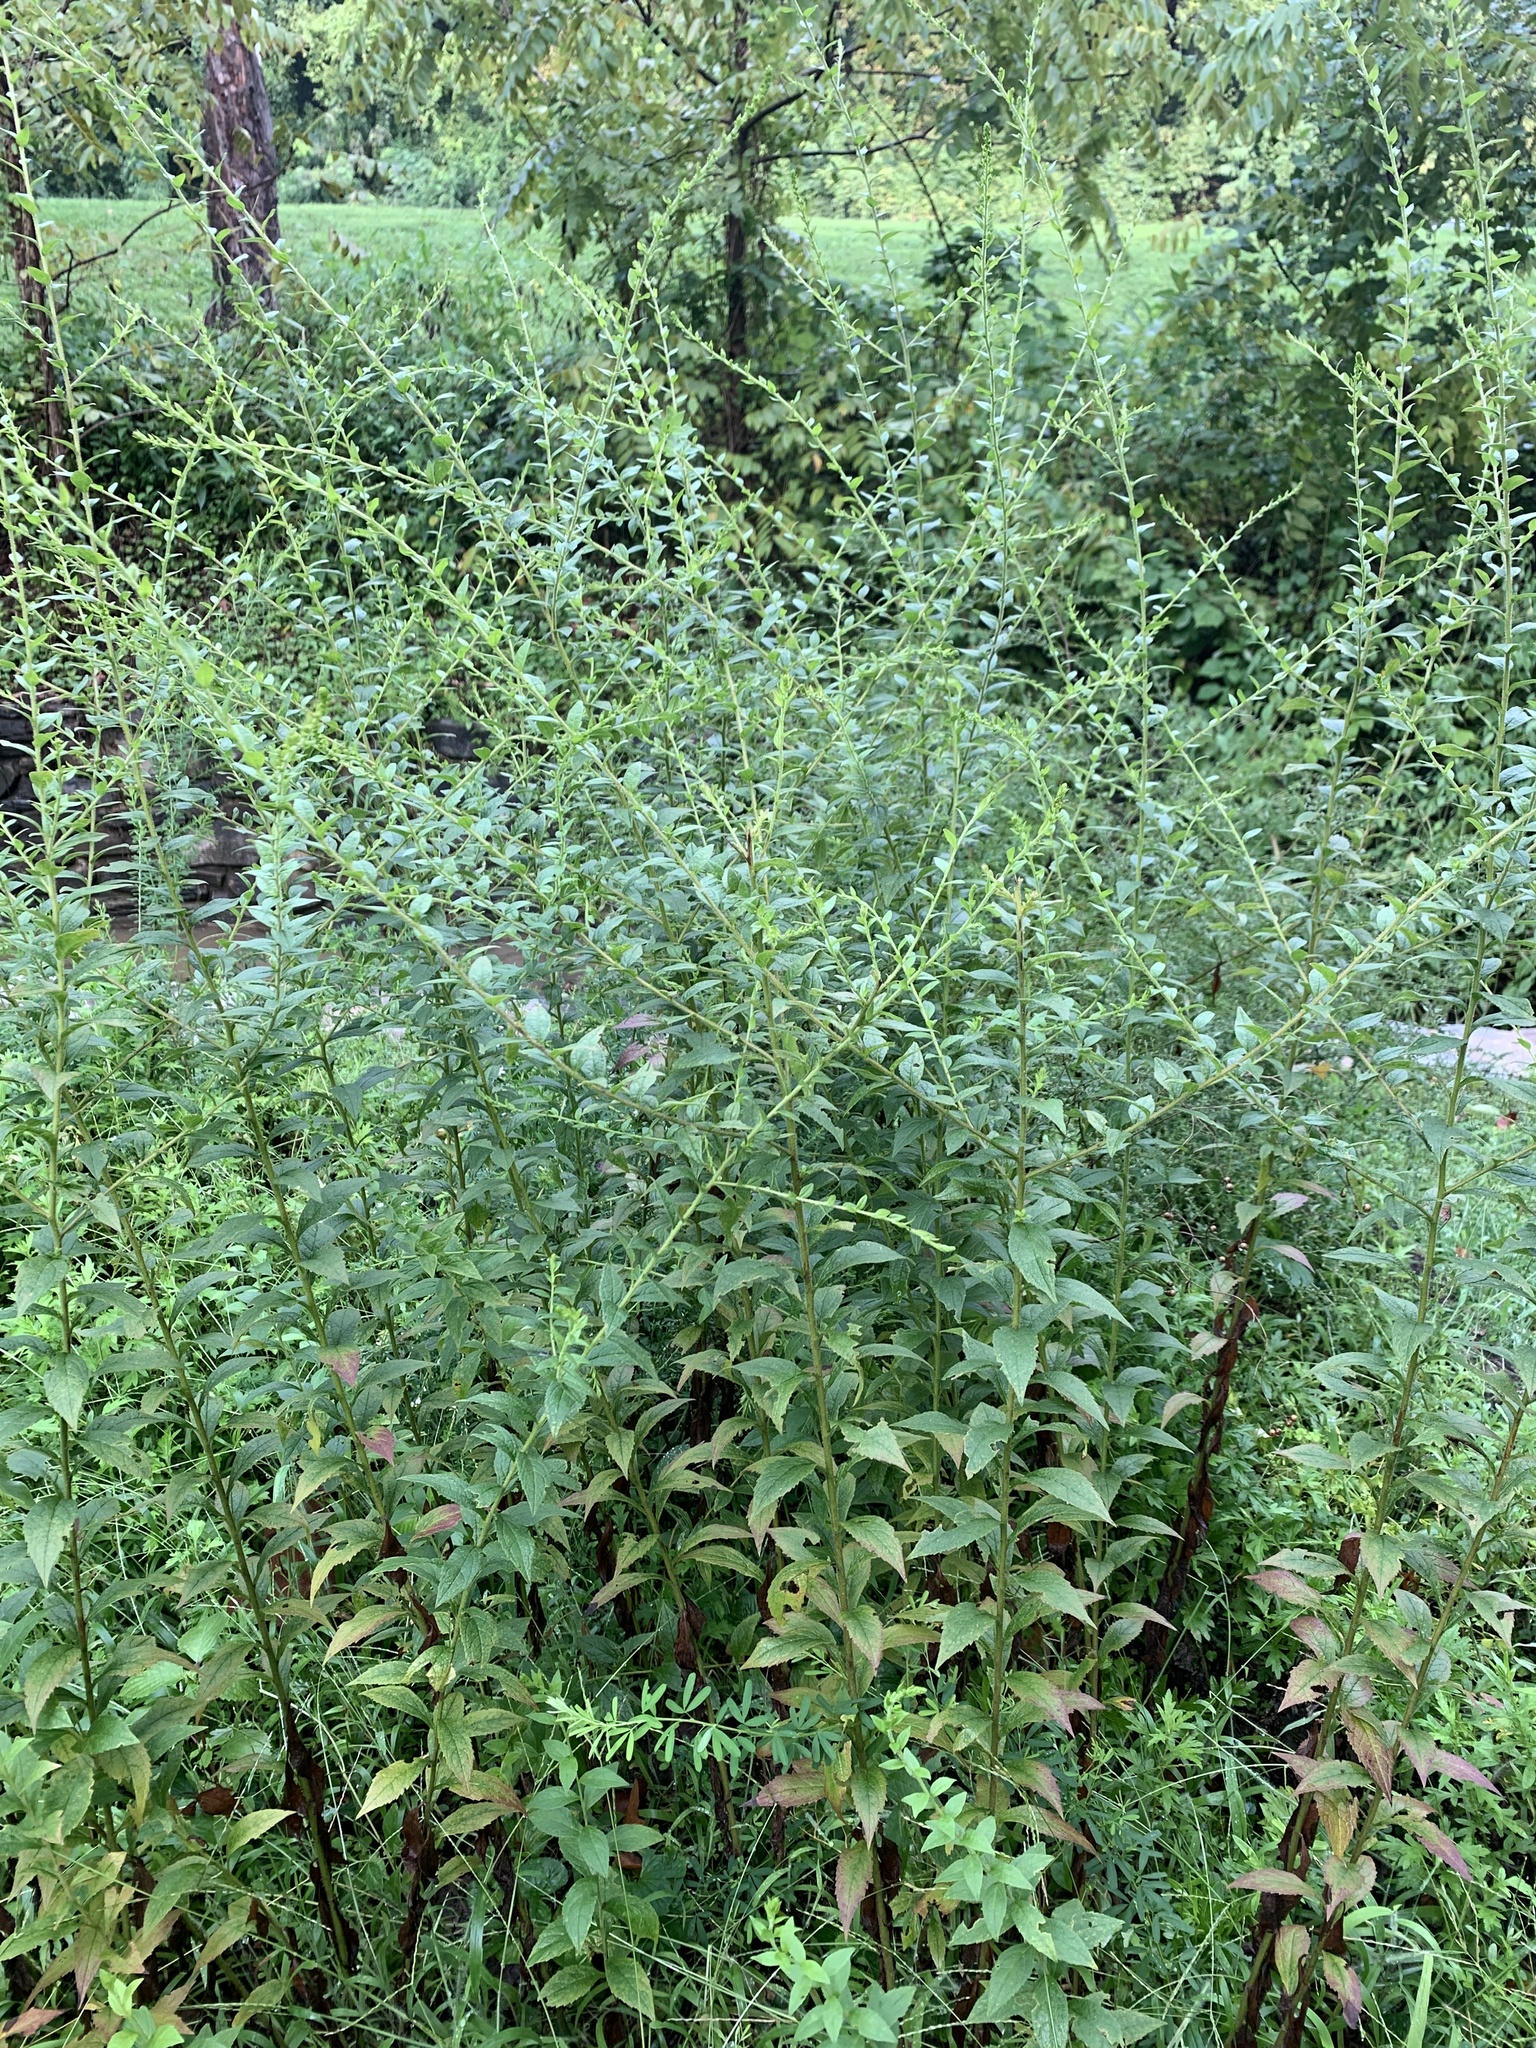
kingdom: Plantae
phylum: Tracheophyta
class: Magnoliopsida
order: Asterales
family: Asteraceae
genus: Solidago
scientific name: Solidago rugosa
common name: Rough-stemmed goldenrod
